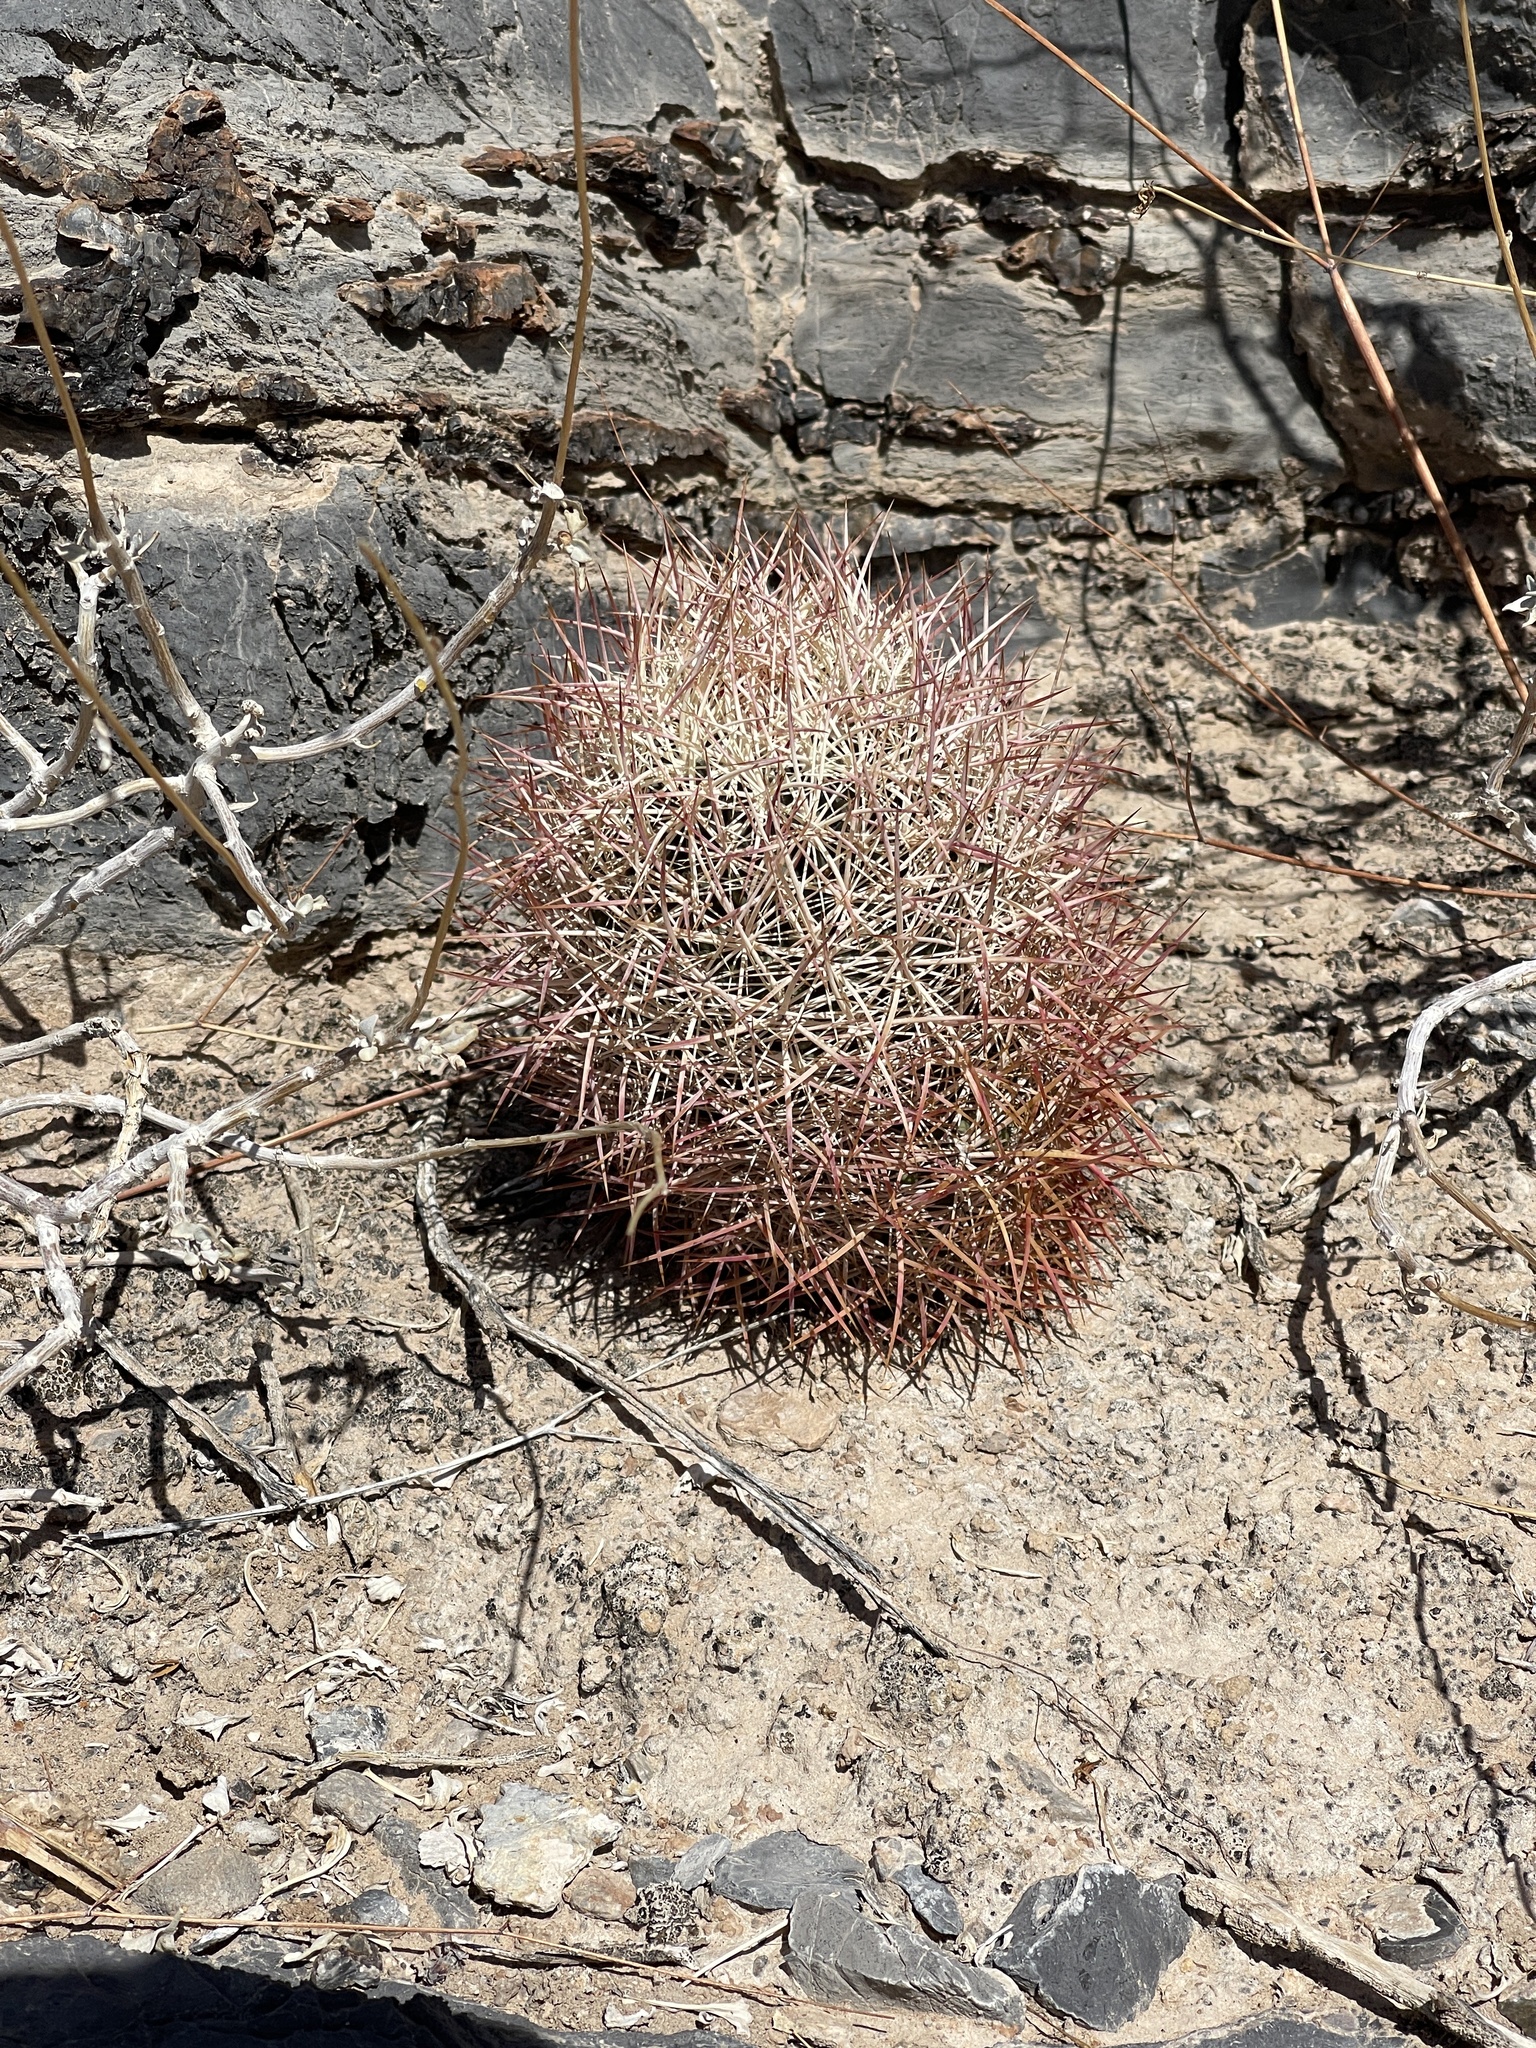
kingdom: Plantae
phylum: Tracheophyta
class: Magnoliopsida
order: Caryophyllales
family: Cactaceae
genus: Ferocactus
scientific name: Ferocactus cylindraceus
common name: California barrel cactus
